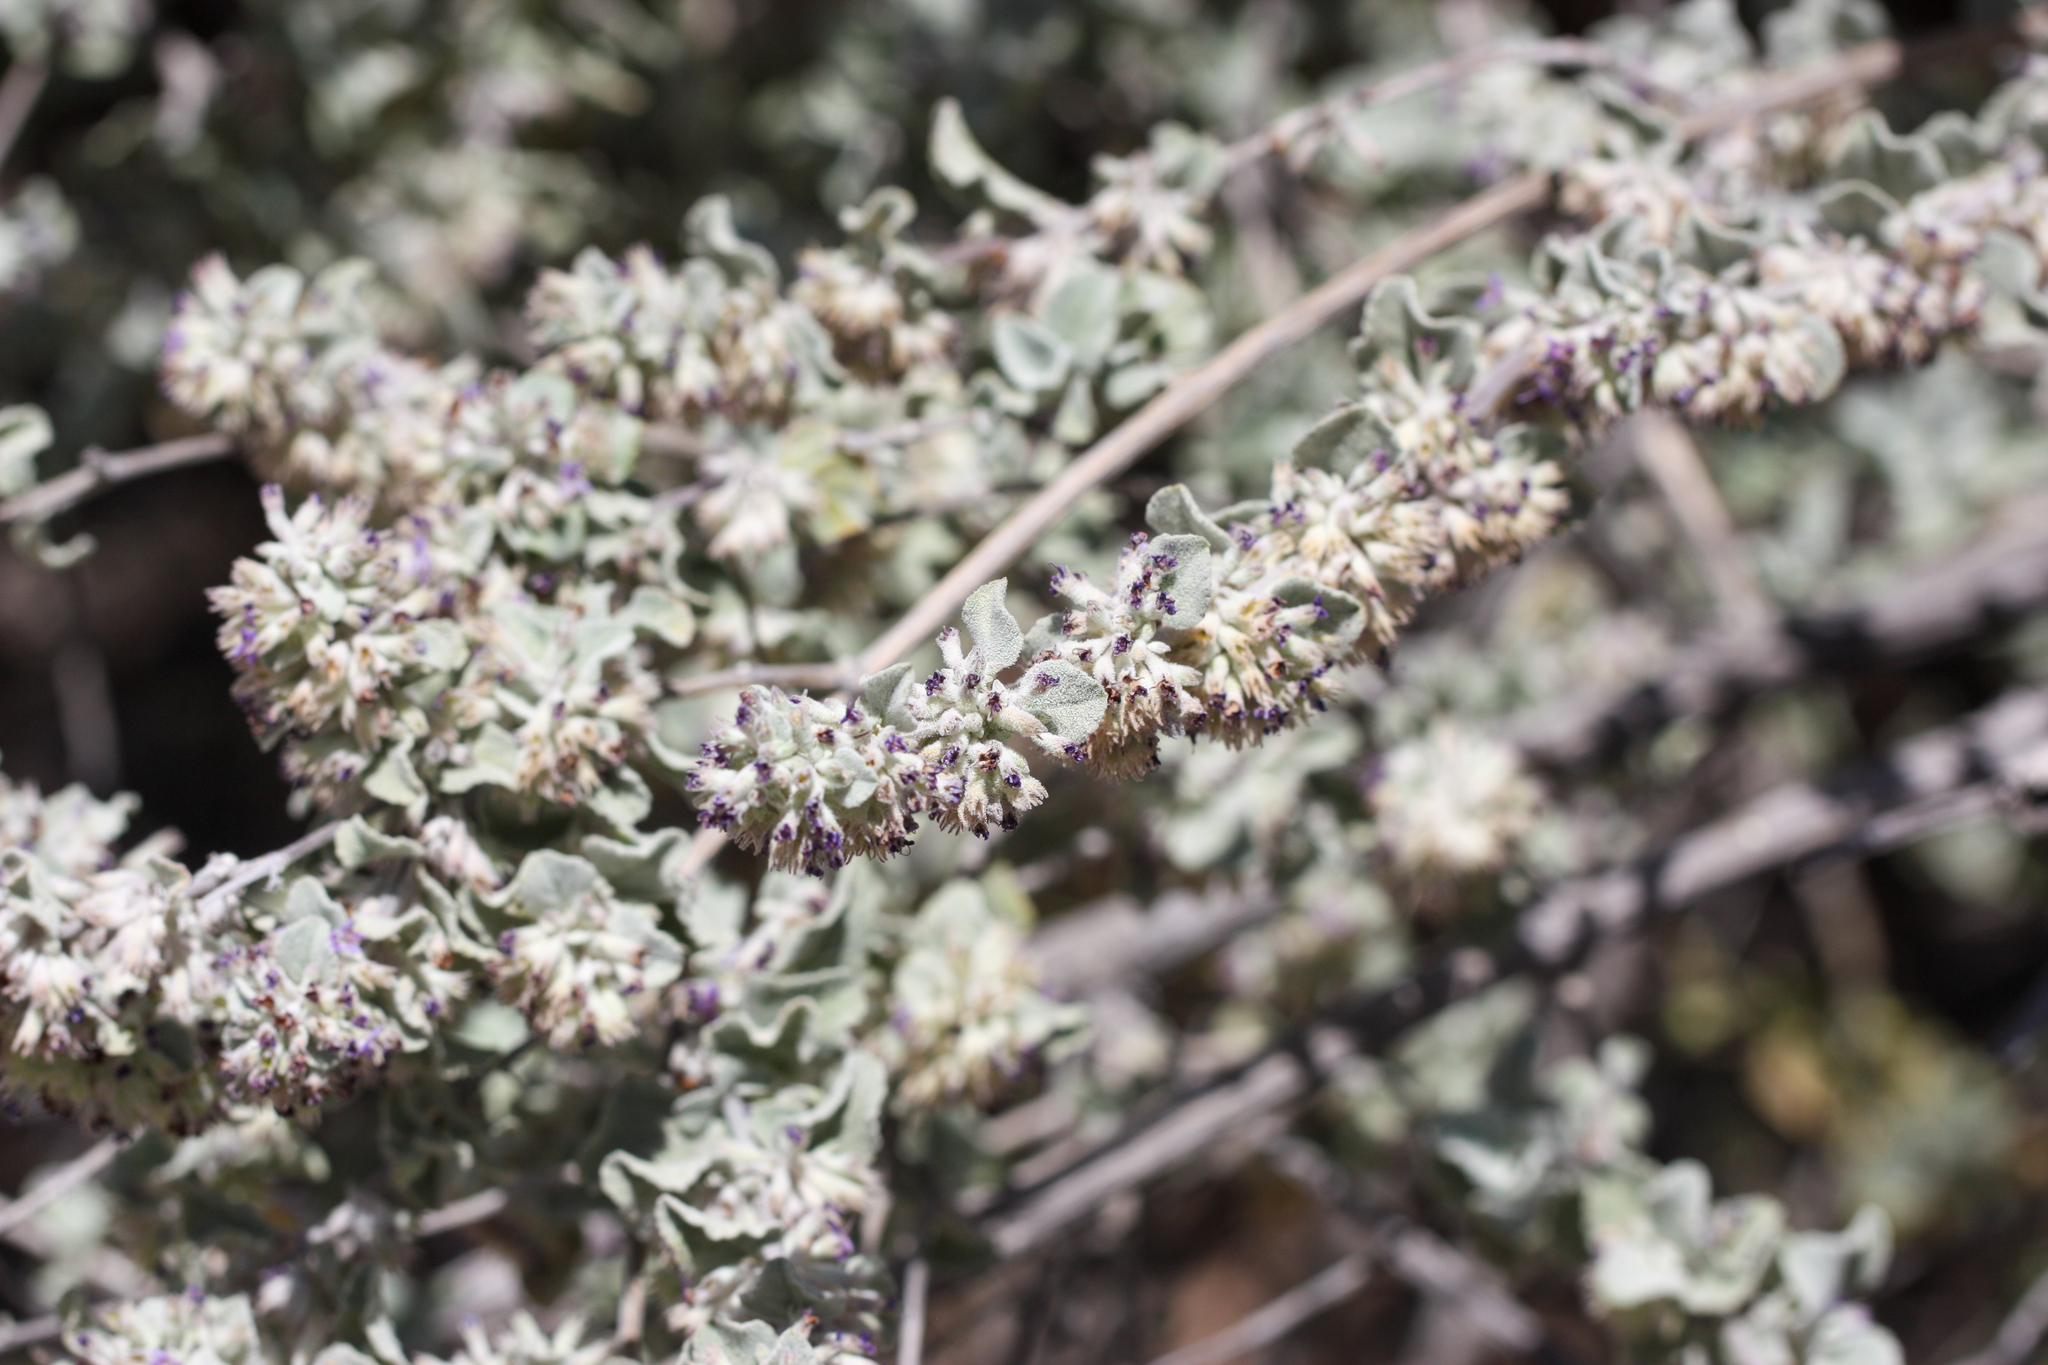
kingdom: Plantae
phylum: Tracheophyta
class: Magnoliopsida
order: Lamiales
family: Lamiaceae
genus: Condea
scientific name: Condea emoryi
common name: Chia
